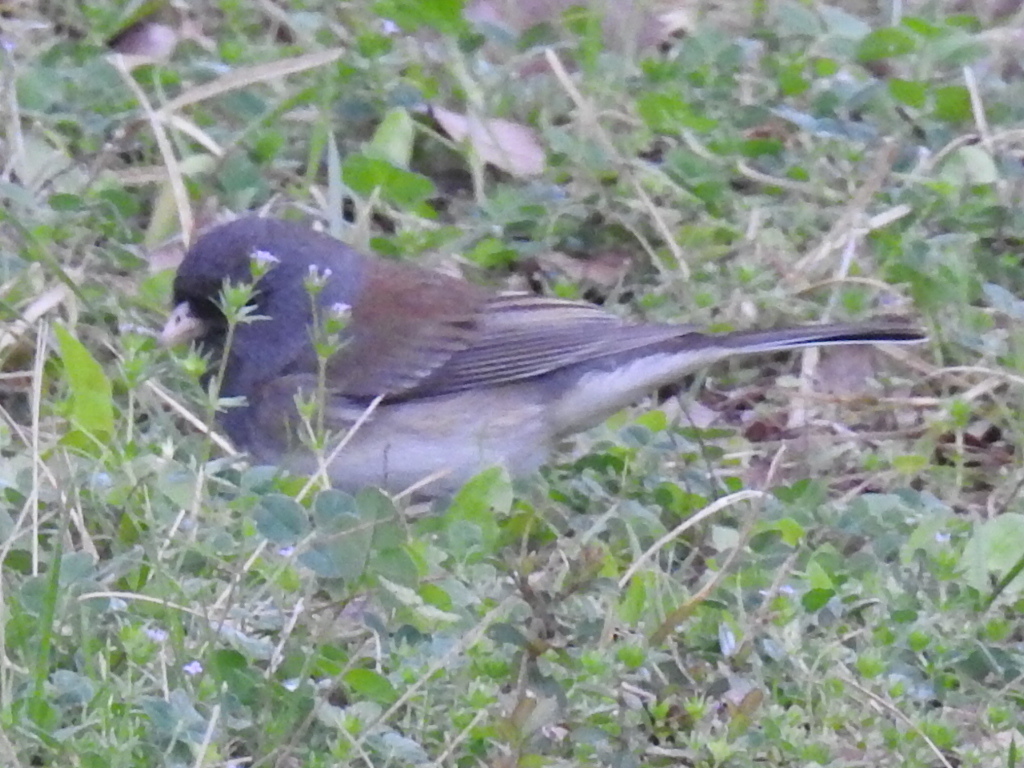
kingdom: Animalia
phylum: Chordata
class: Aves
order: Passeriformes
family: Passerellidae
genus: Junco
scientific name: Junco hyemalis
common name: Dark-eyed junco
